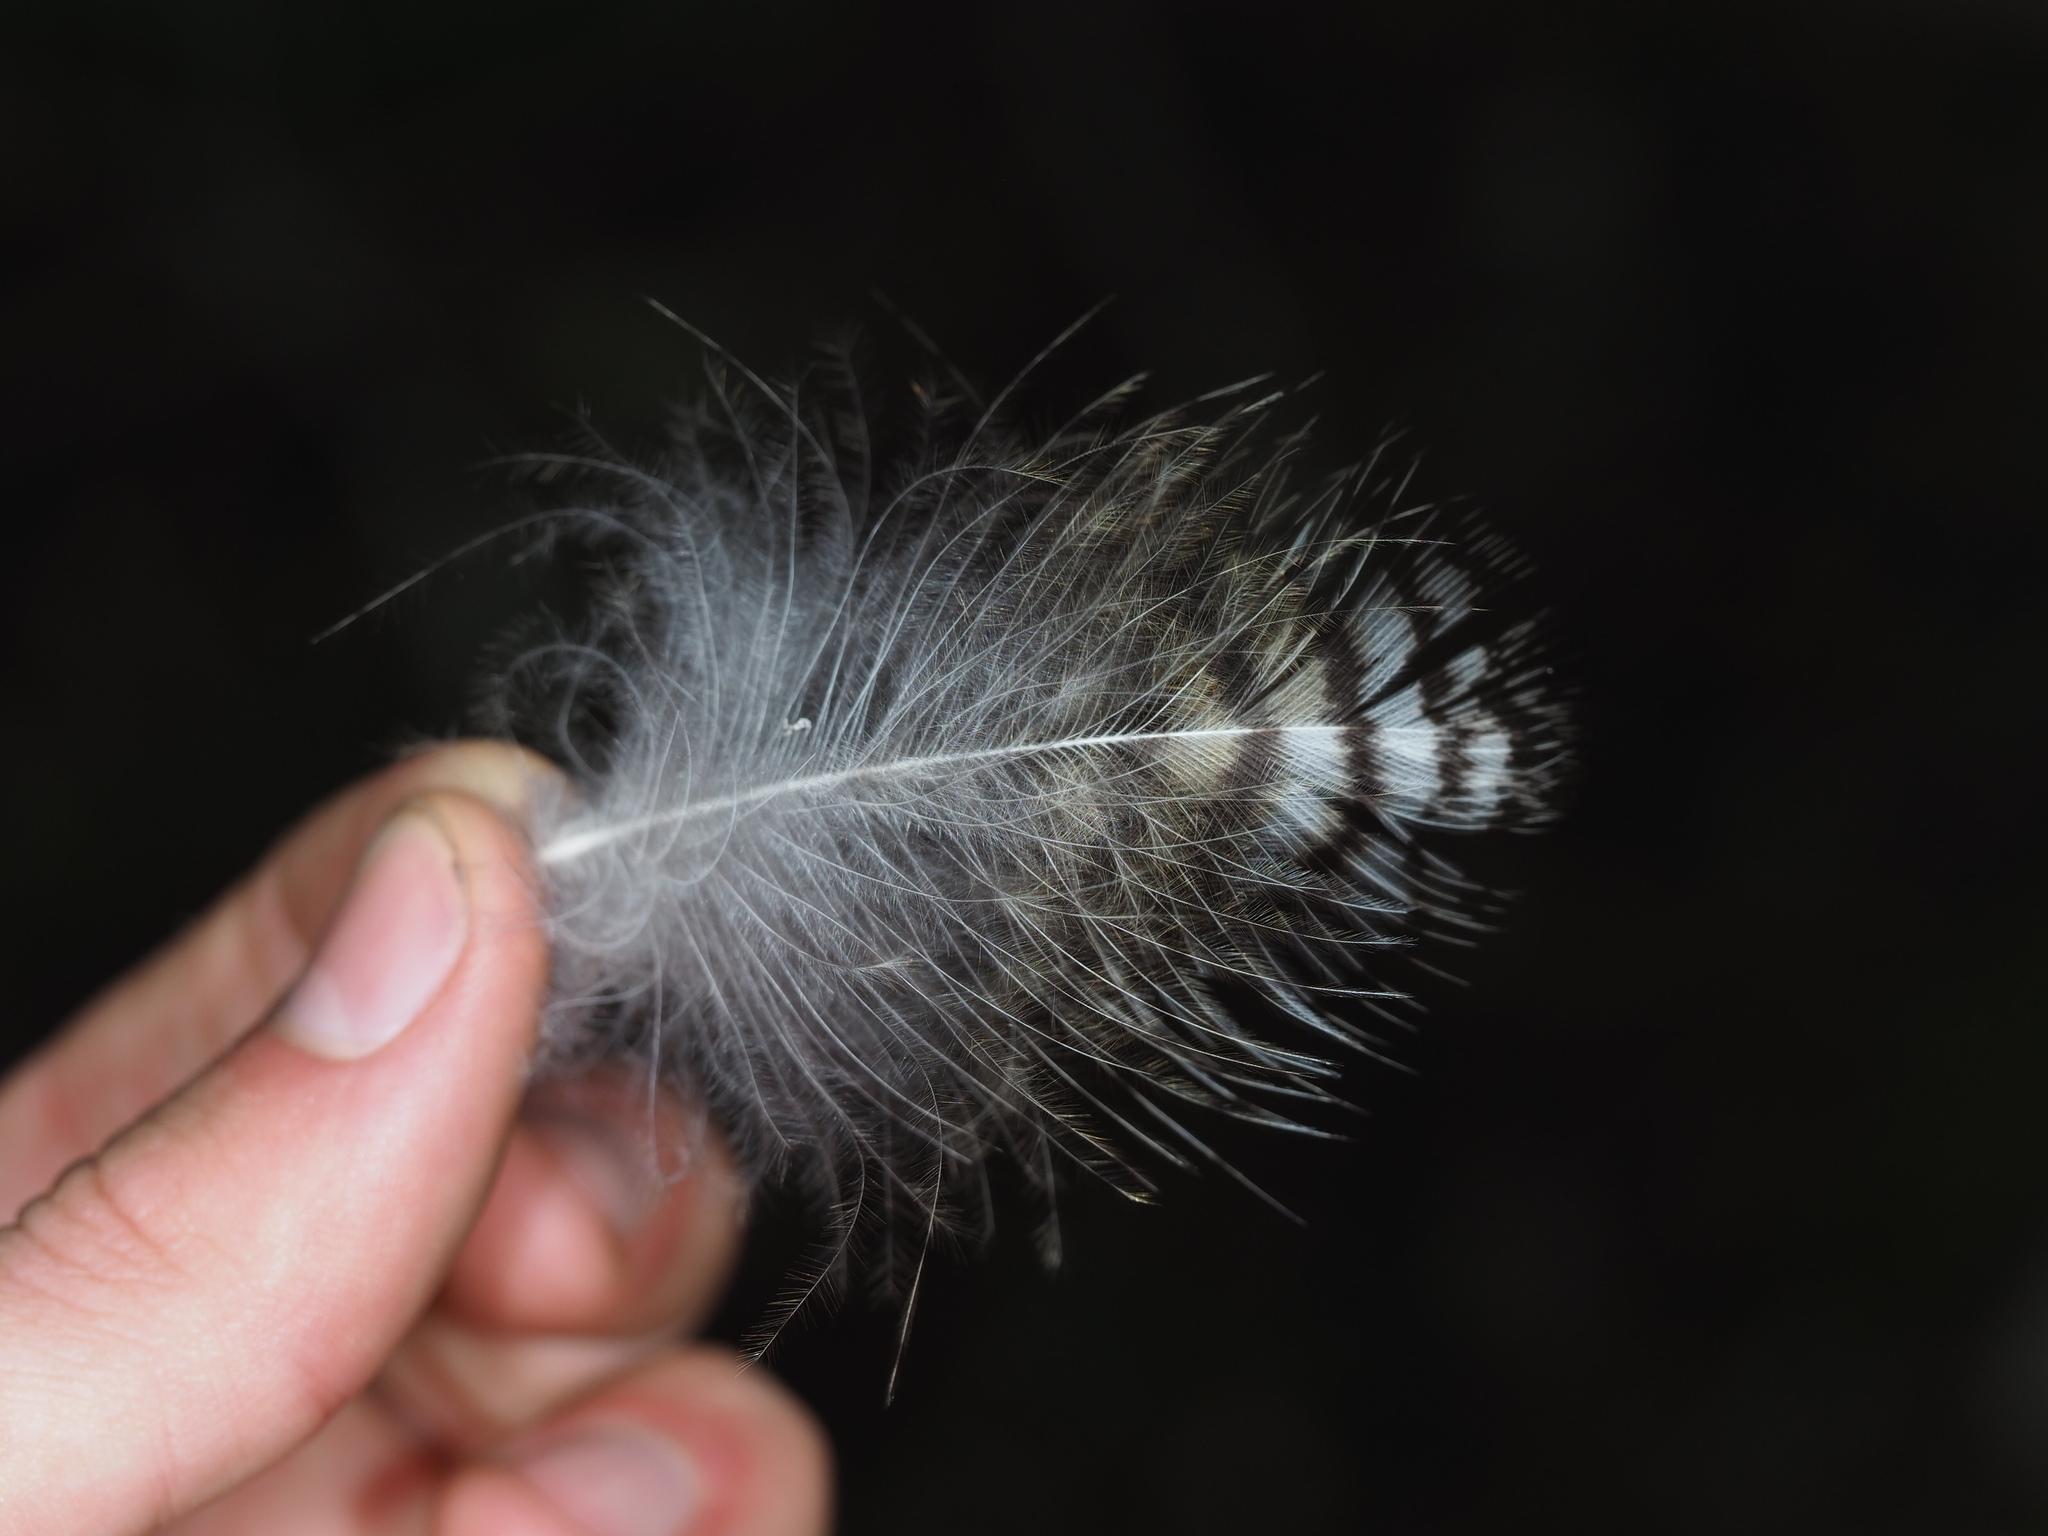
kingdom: Animalia
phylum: Chordata
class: Aves
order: Strigiformes
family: Strigidae
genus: Bubo
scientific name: Bubo virginianus
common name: Great horned owl
